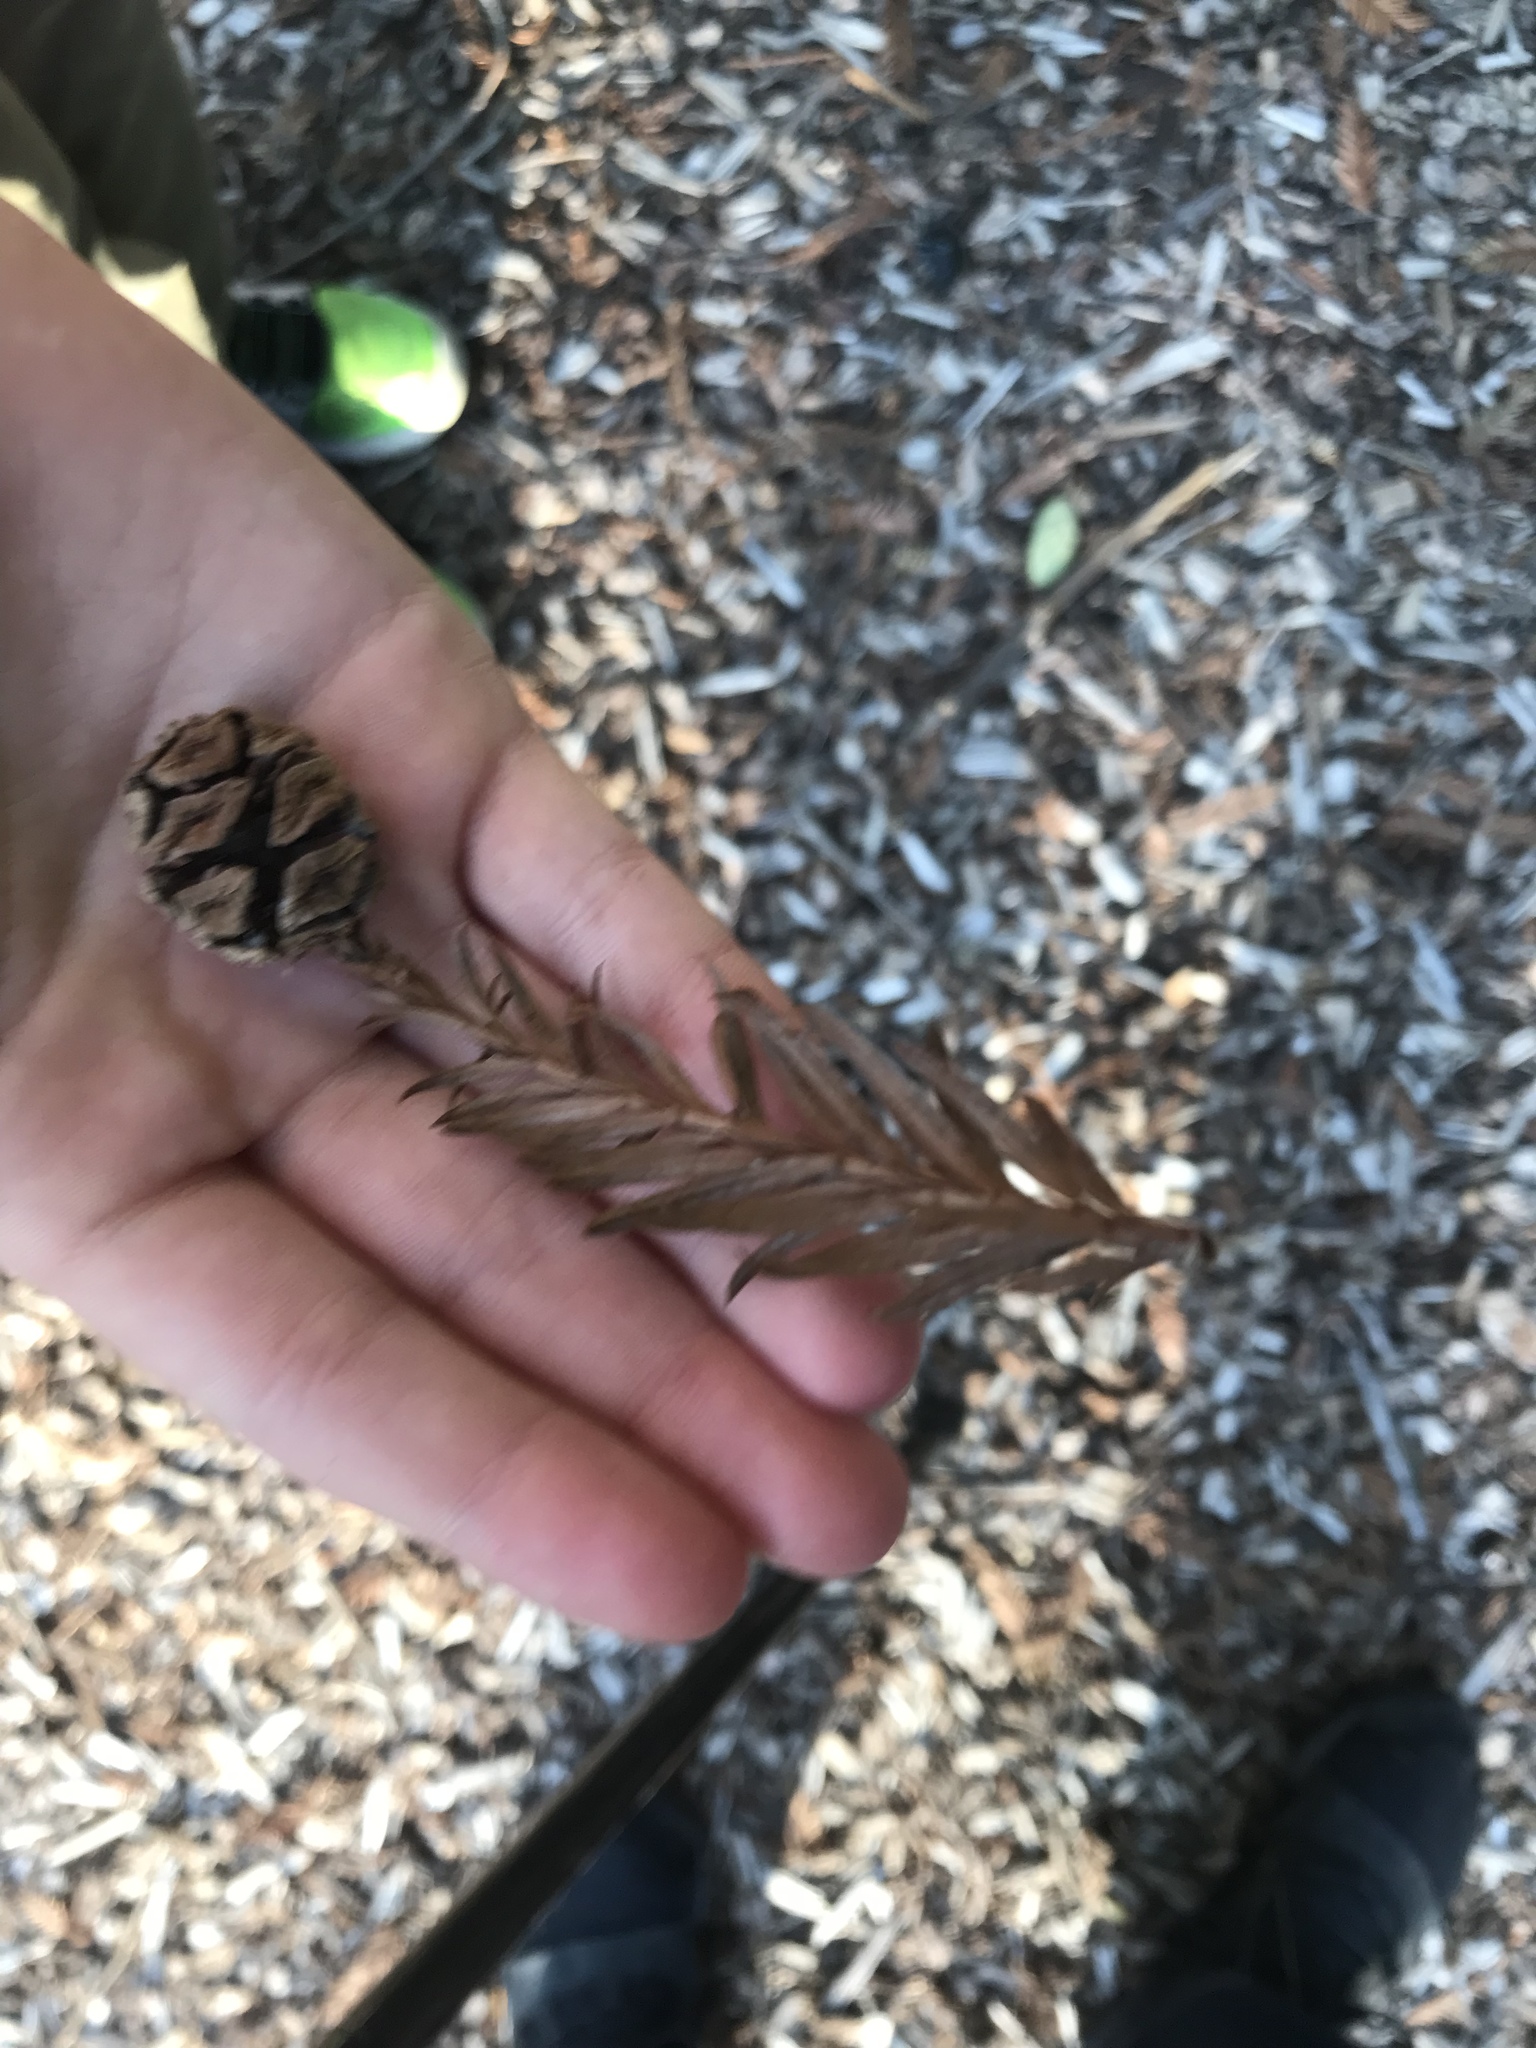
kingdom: Plantae
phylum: Tracheophyta
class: Pinopsida
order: Pinales
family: Cupressaceae
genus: Sequoia
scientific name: Sequoia sempervirens
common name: Coast redwood
